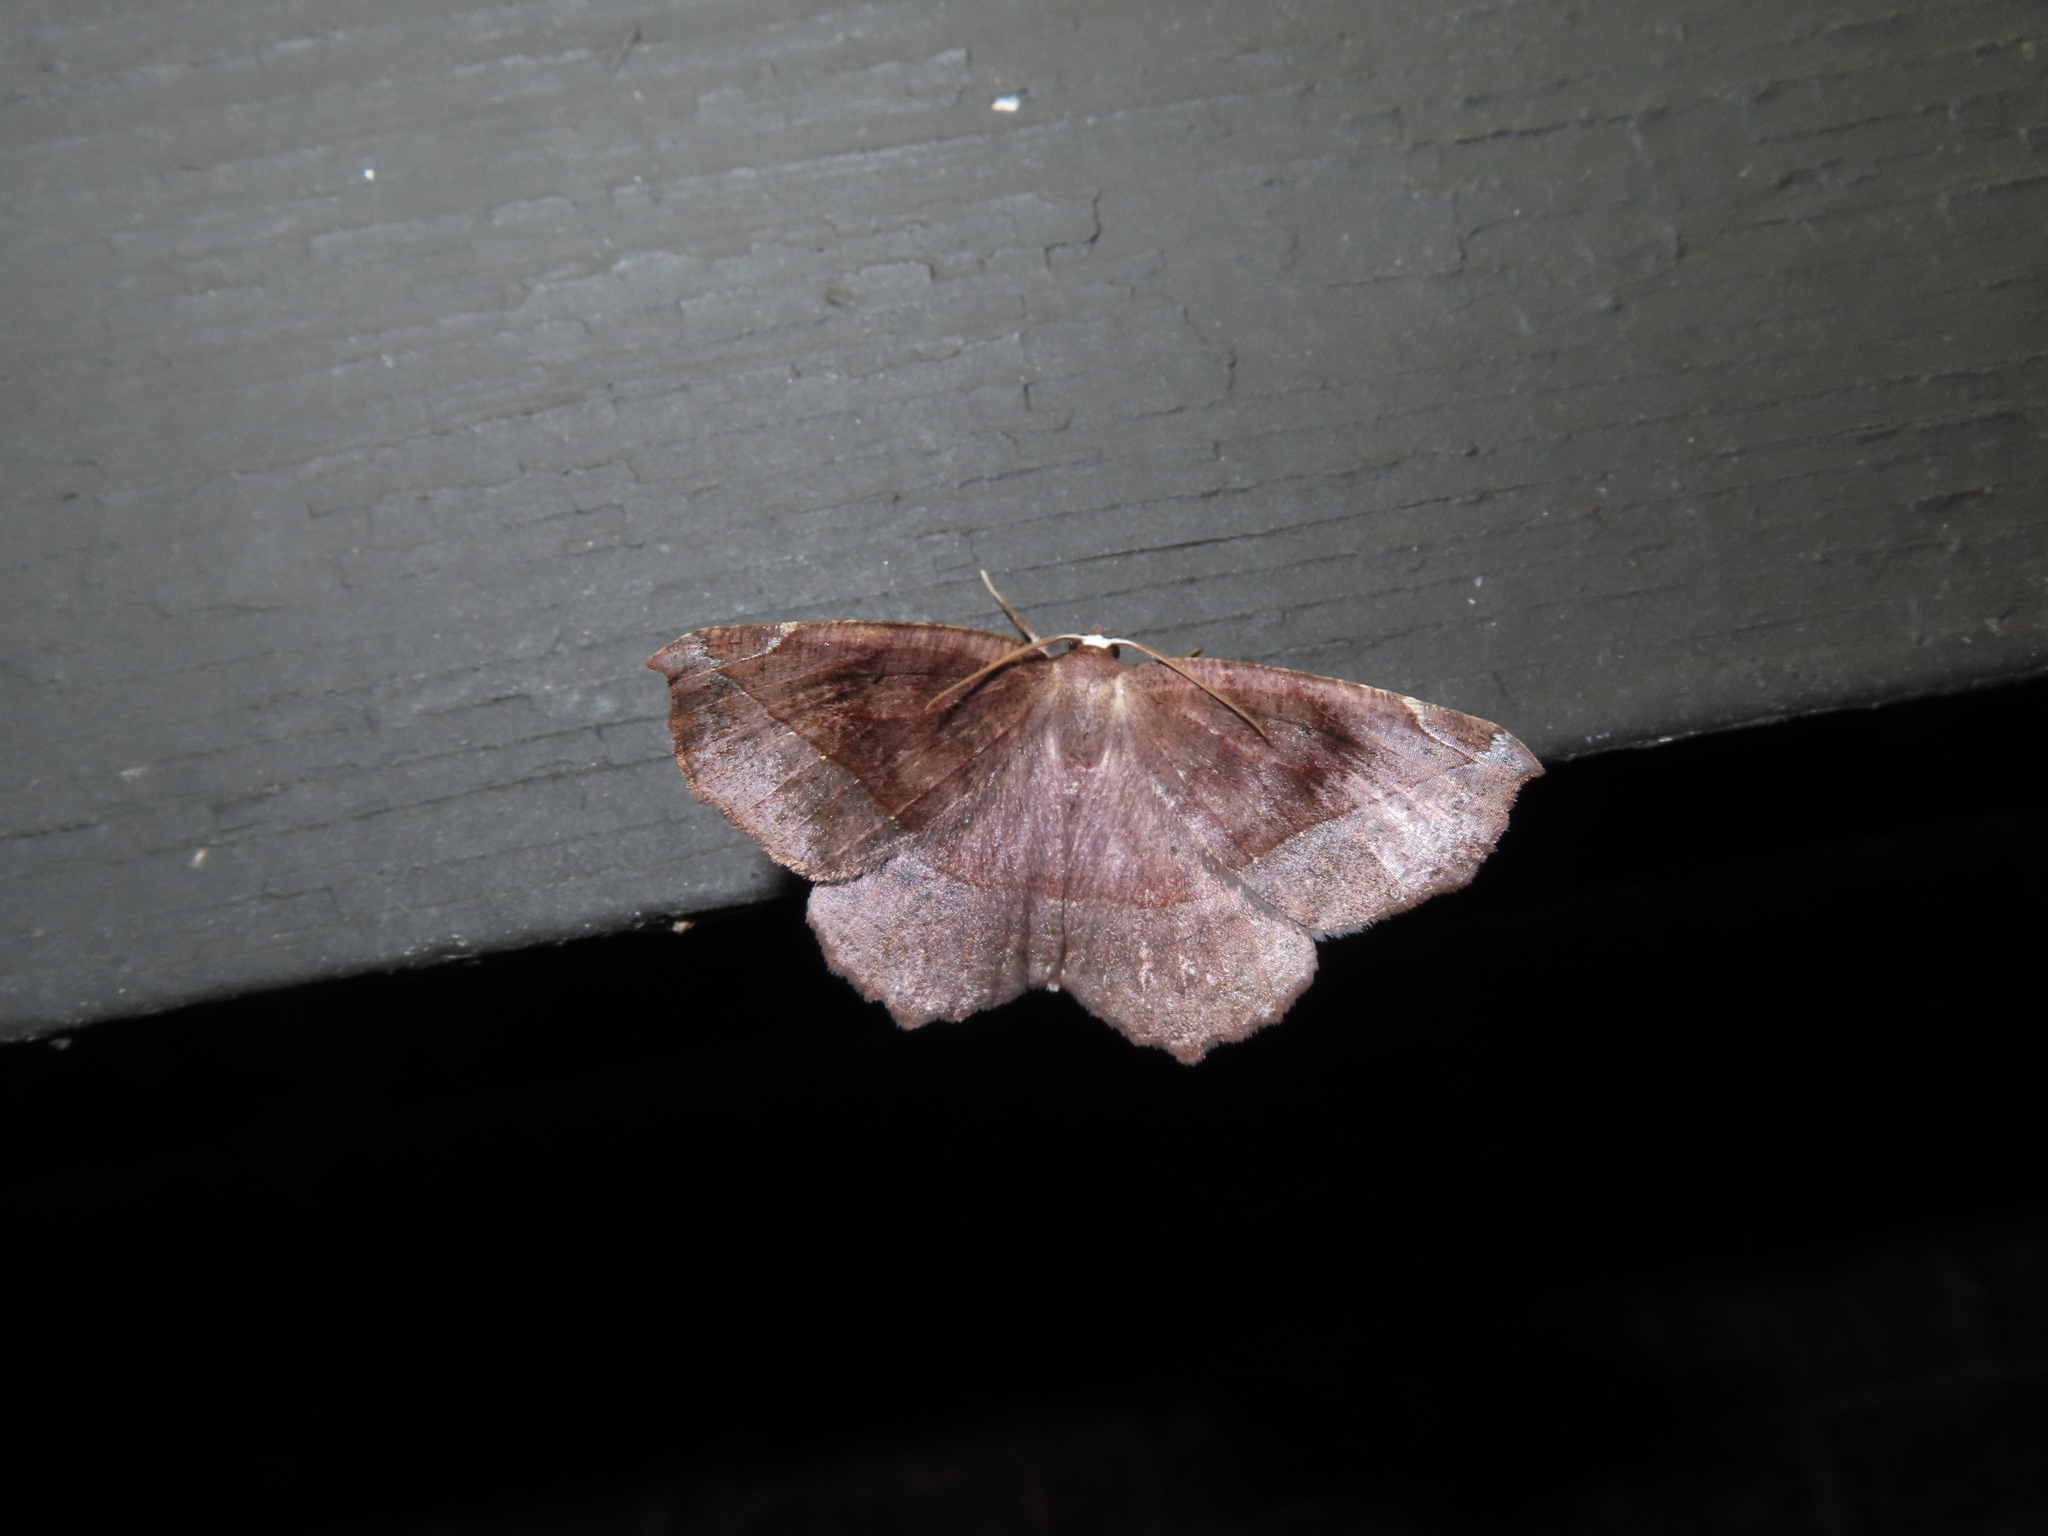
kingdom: Animalia
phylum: Arthropoda
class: Insecta
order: Lepidoptera
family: Geometridae
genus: Eutrapela
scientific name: Eutrapela clemataria
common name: Curved-toothed geometer
